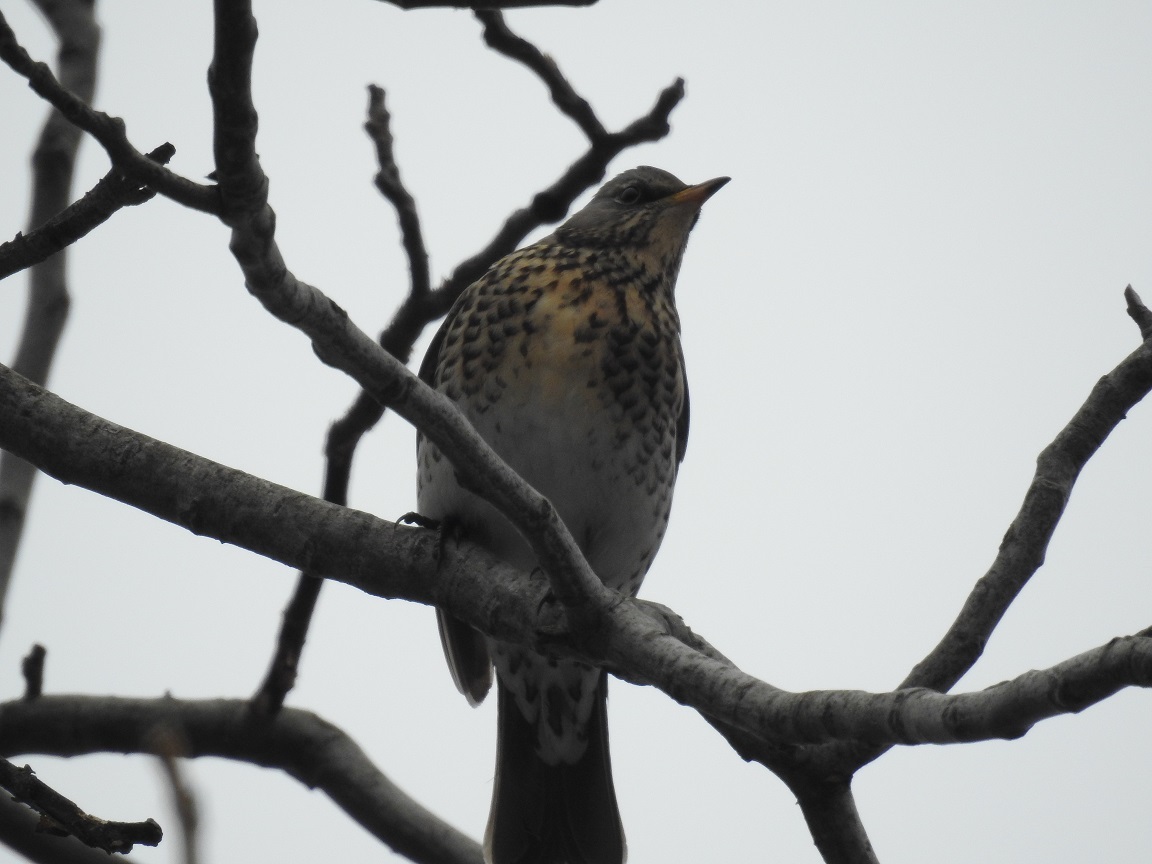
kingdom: Animalia
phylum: Chordata
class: Aves
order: Passeriformes
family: Turdidae
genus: Turdus
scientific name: Turdus pilaris
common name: Fieldfare
